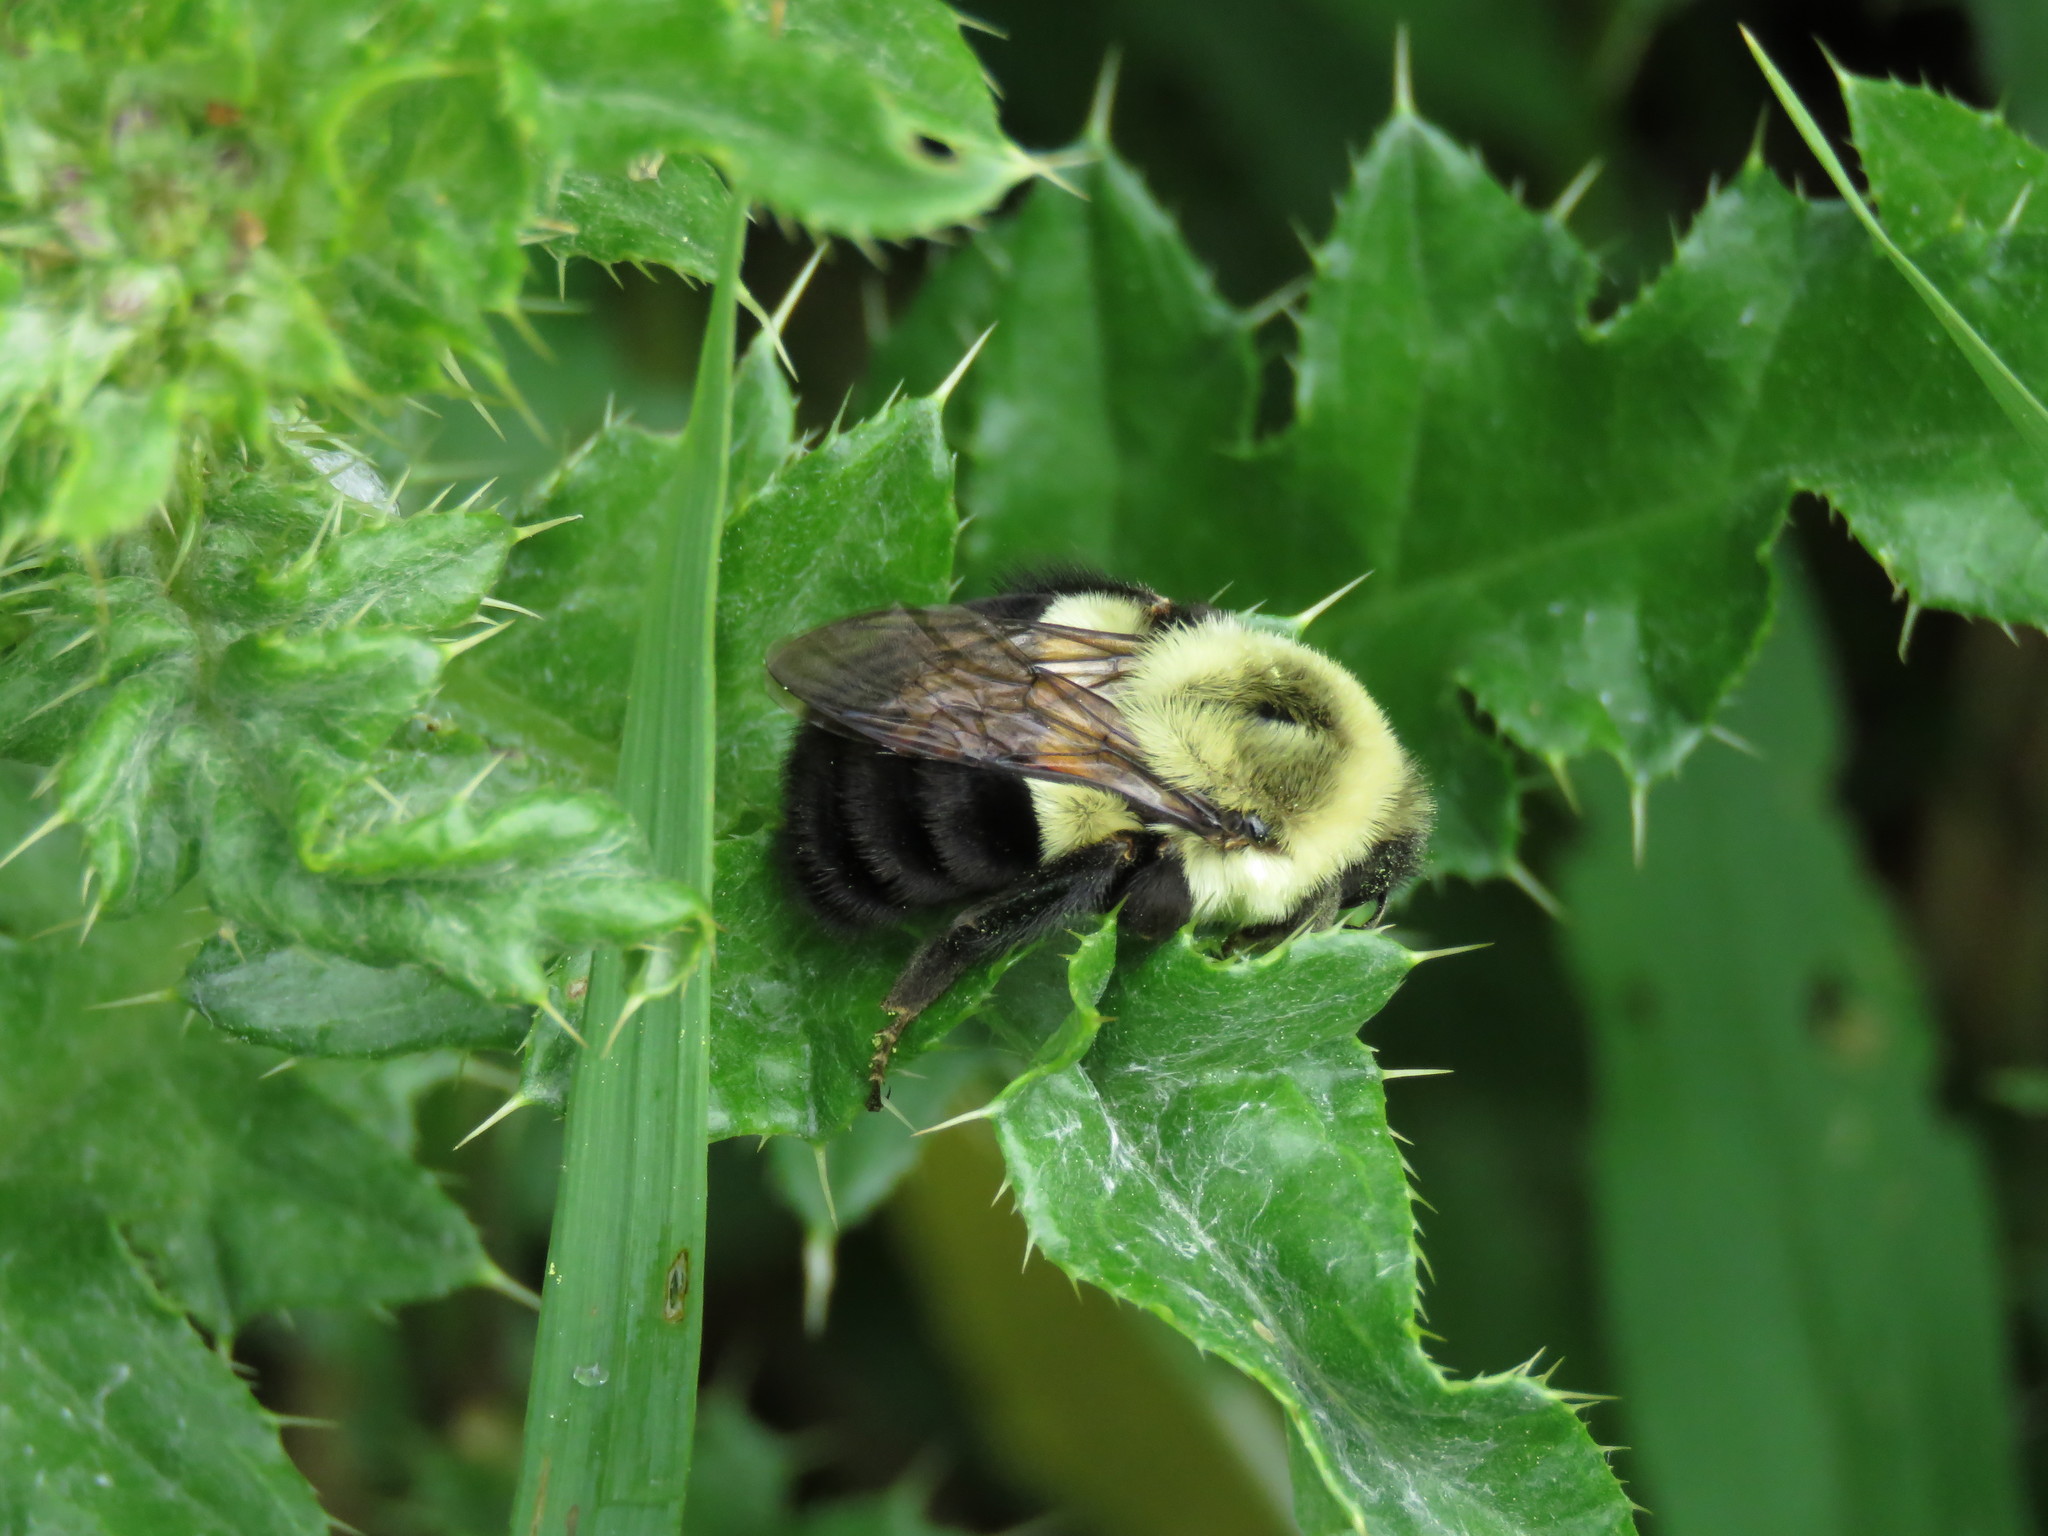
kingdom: Animalia
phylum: Arthropoda
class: Insecta
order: Hymenoptera
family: Apidae
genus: Bombus
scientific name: Bombus impatiens
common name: Common eastern bumble bee
